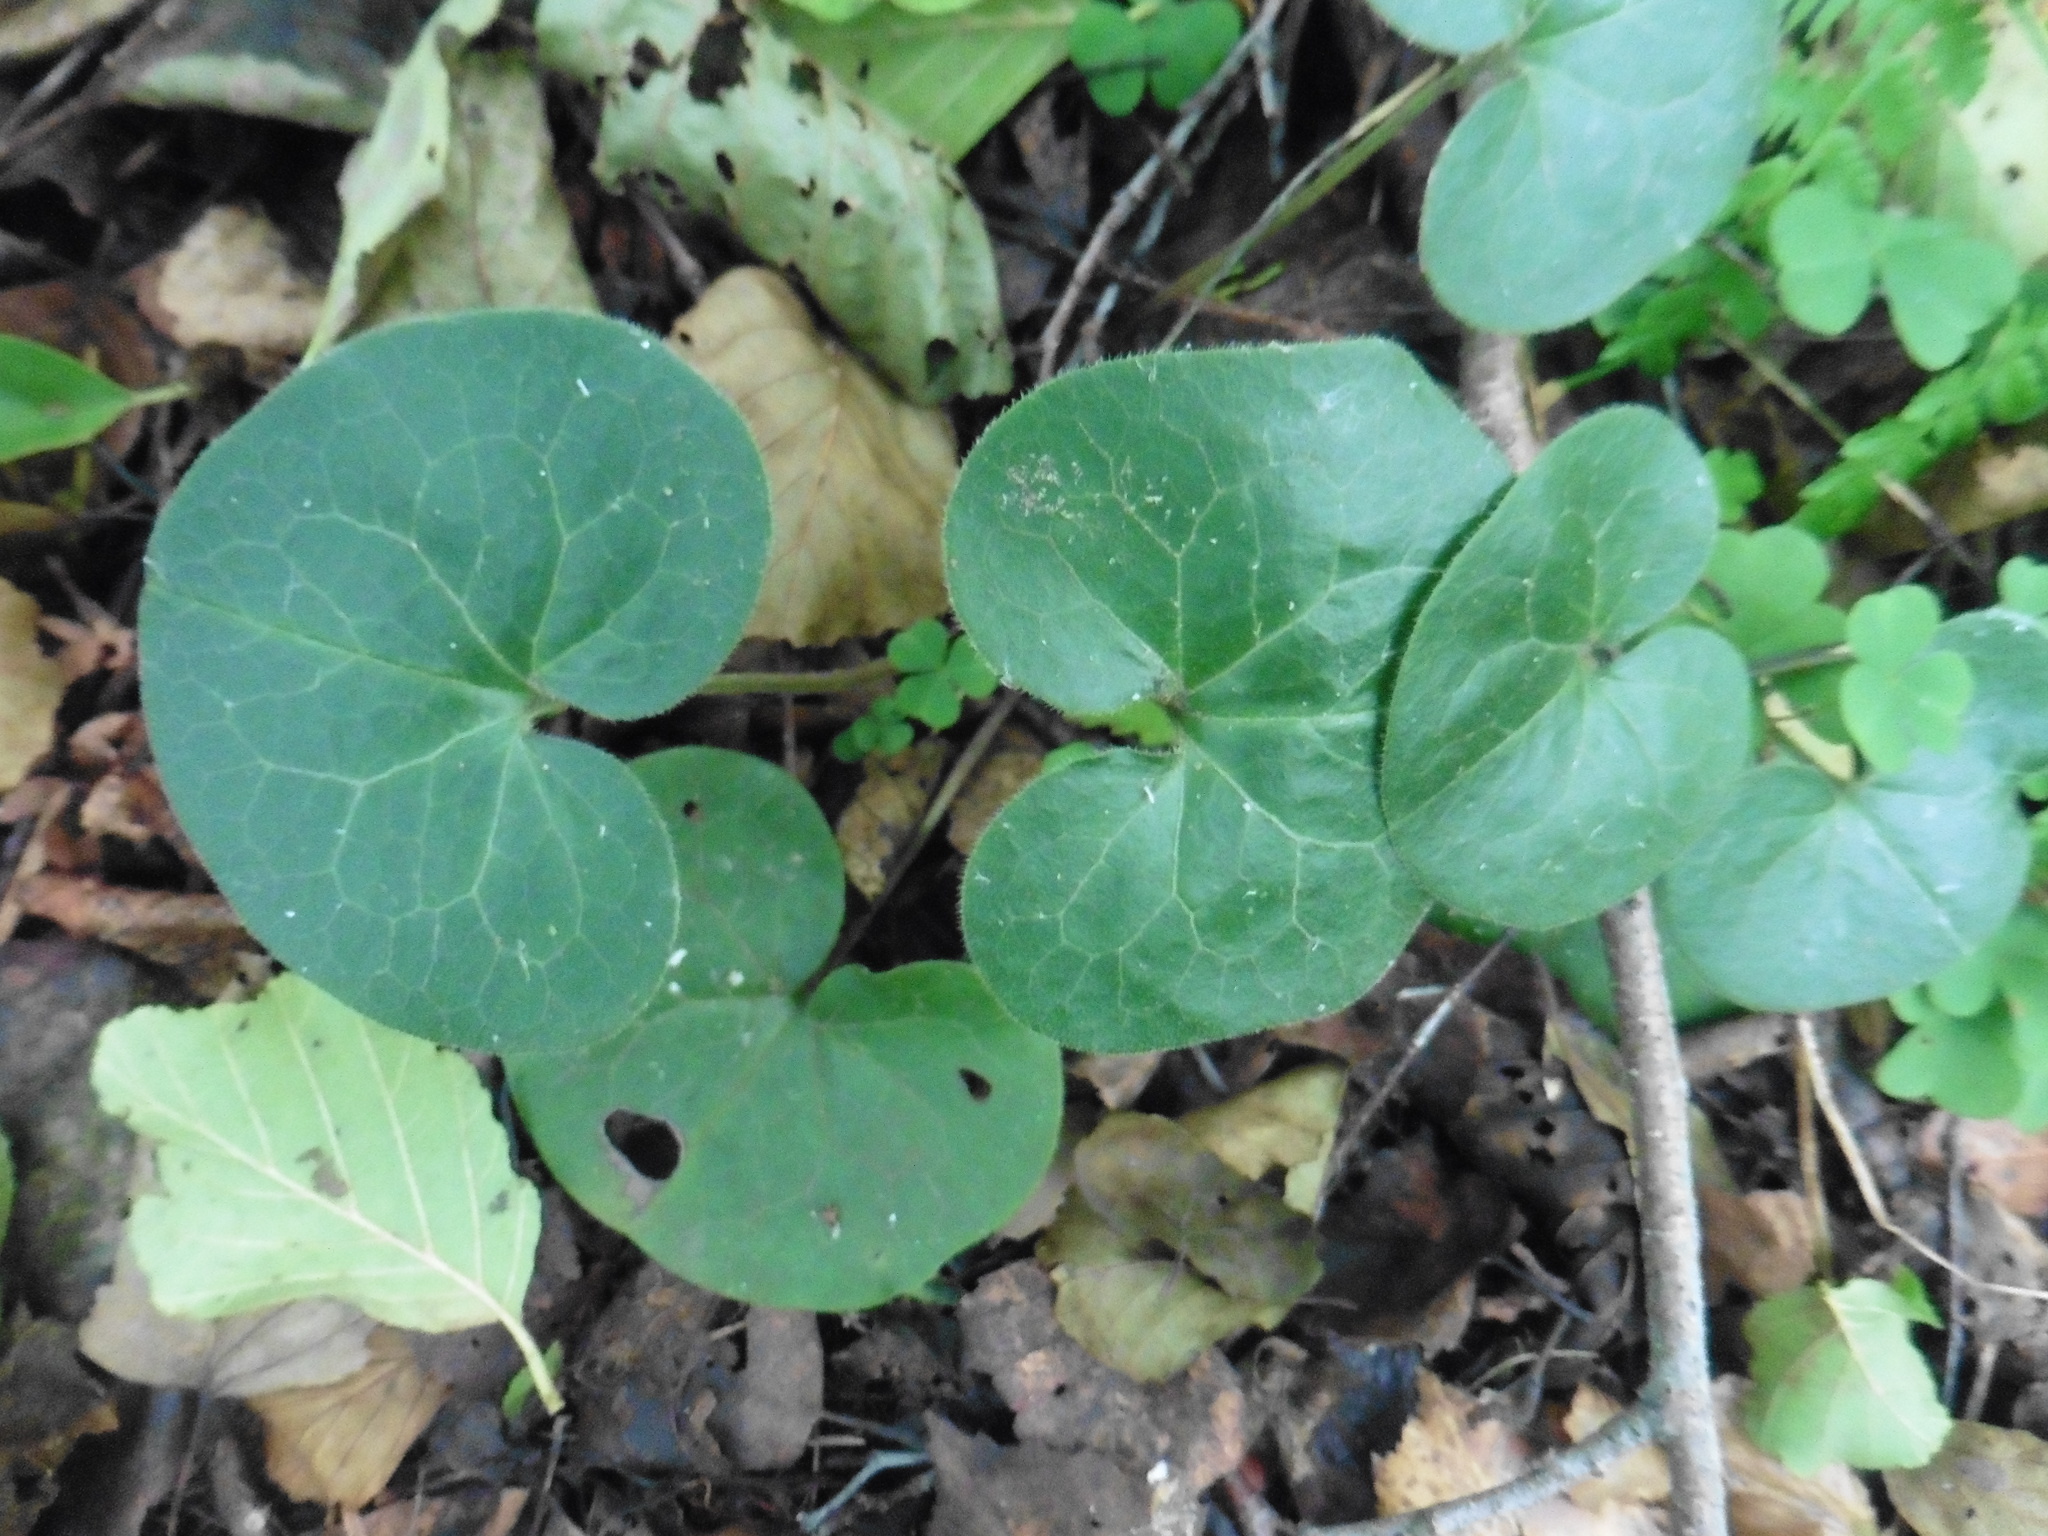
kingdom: Plantae
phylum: Tracheophyta
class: Magnoliopsida
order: Piperales
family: Aristolochiaceae
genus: Asarum
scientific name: Asarum europaeum
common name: Asarabacca
